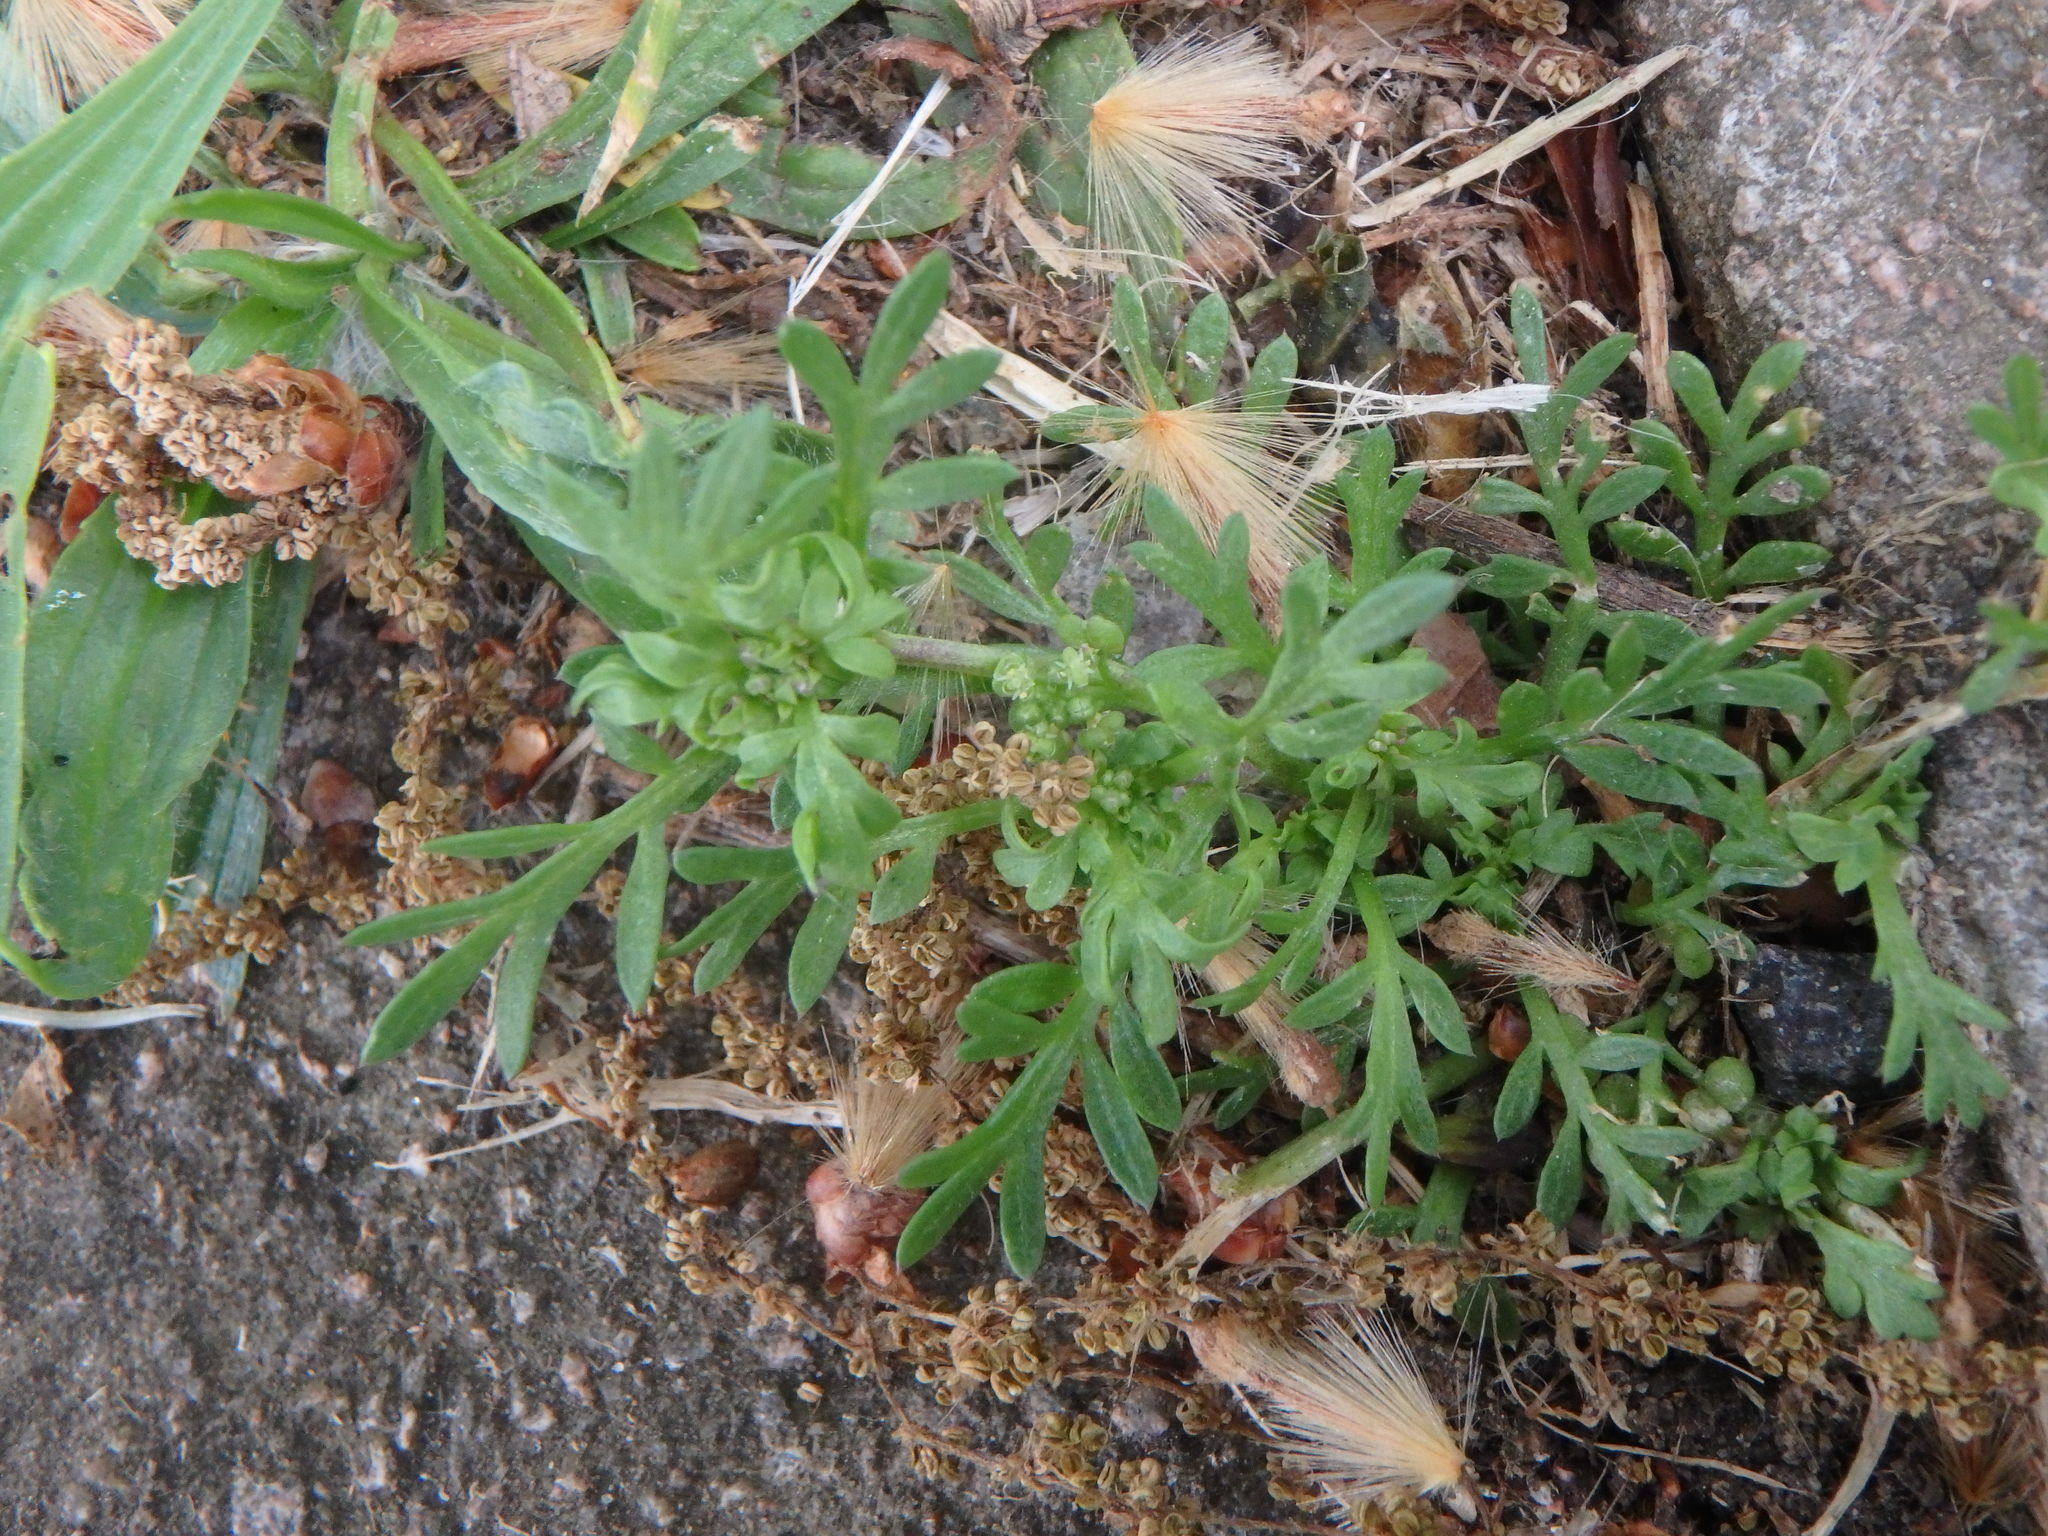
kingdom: Plantae
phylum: Tracheophyta
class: Magnoliopsida
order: Brassicales
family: Brassicaceae
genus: Lepidium
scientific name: Lepidium didymum
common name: Lesser swinecress
